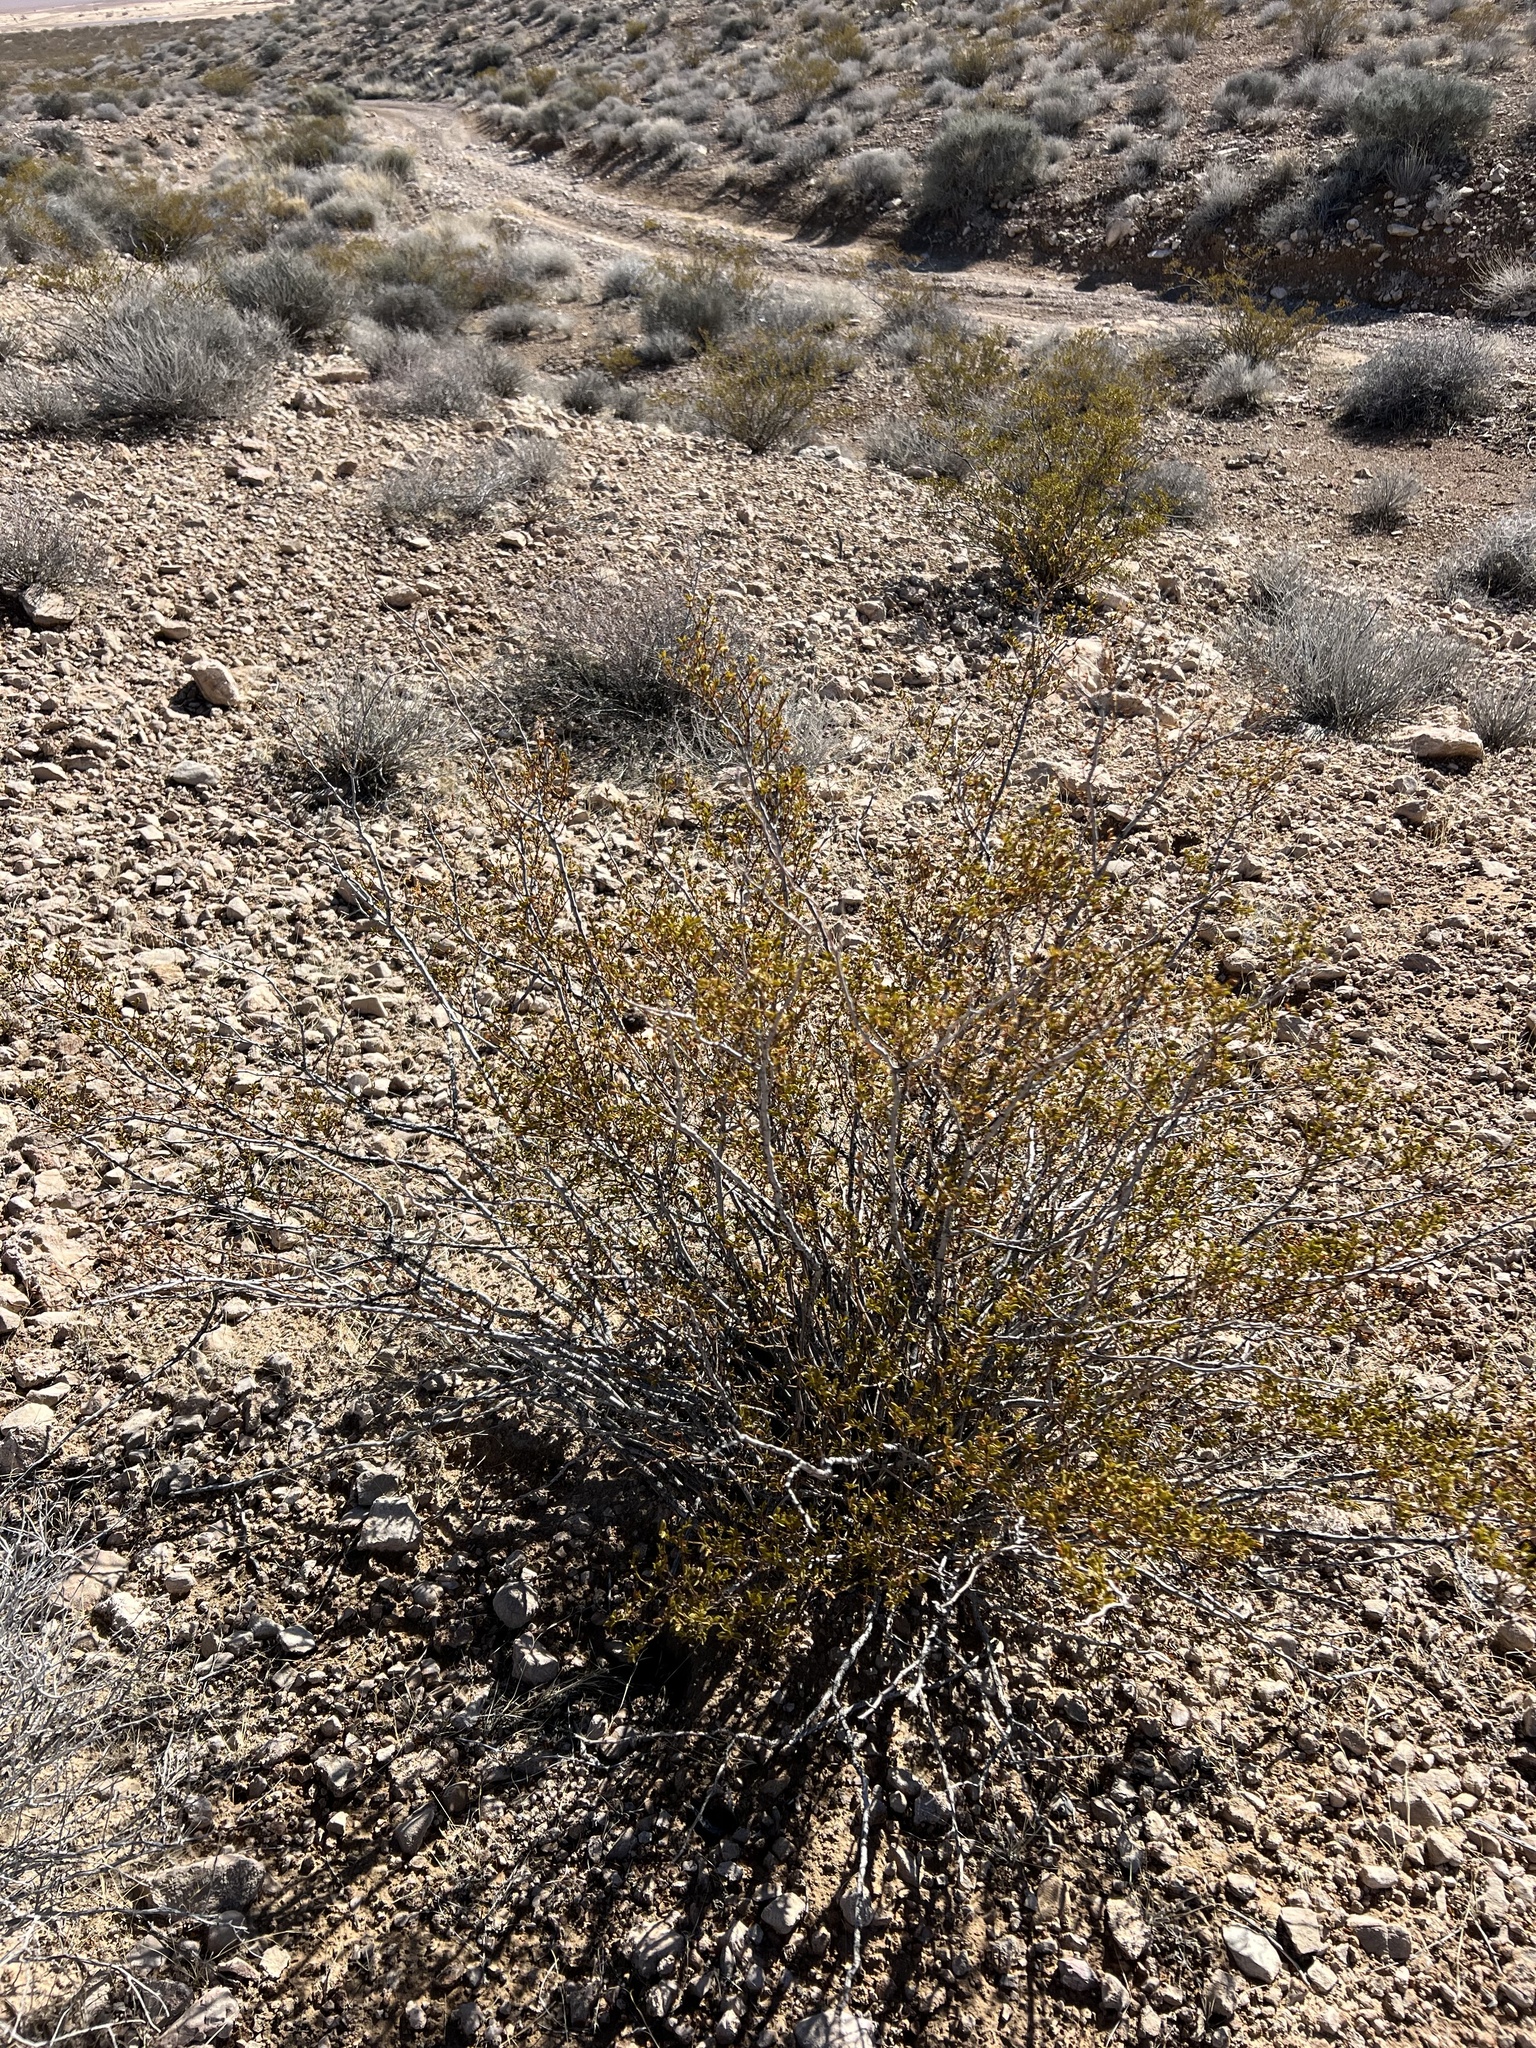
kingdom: Plantae
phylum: Tracheophyta
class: Magnoliopsida
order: Zygophyllales
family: Zygophyllaceae
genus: Larrea
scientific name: Larrea tridentata
